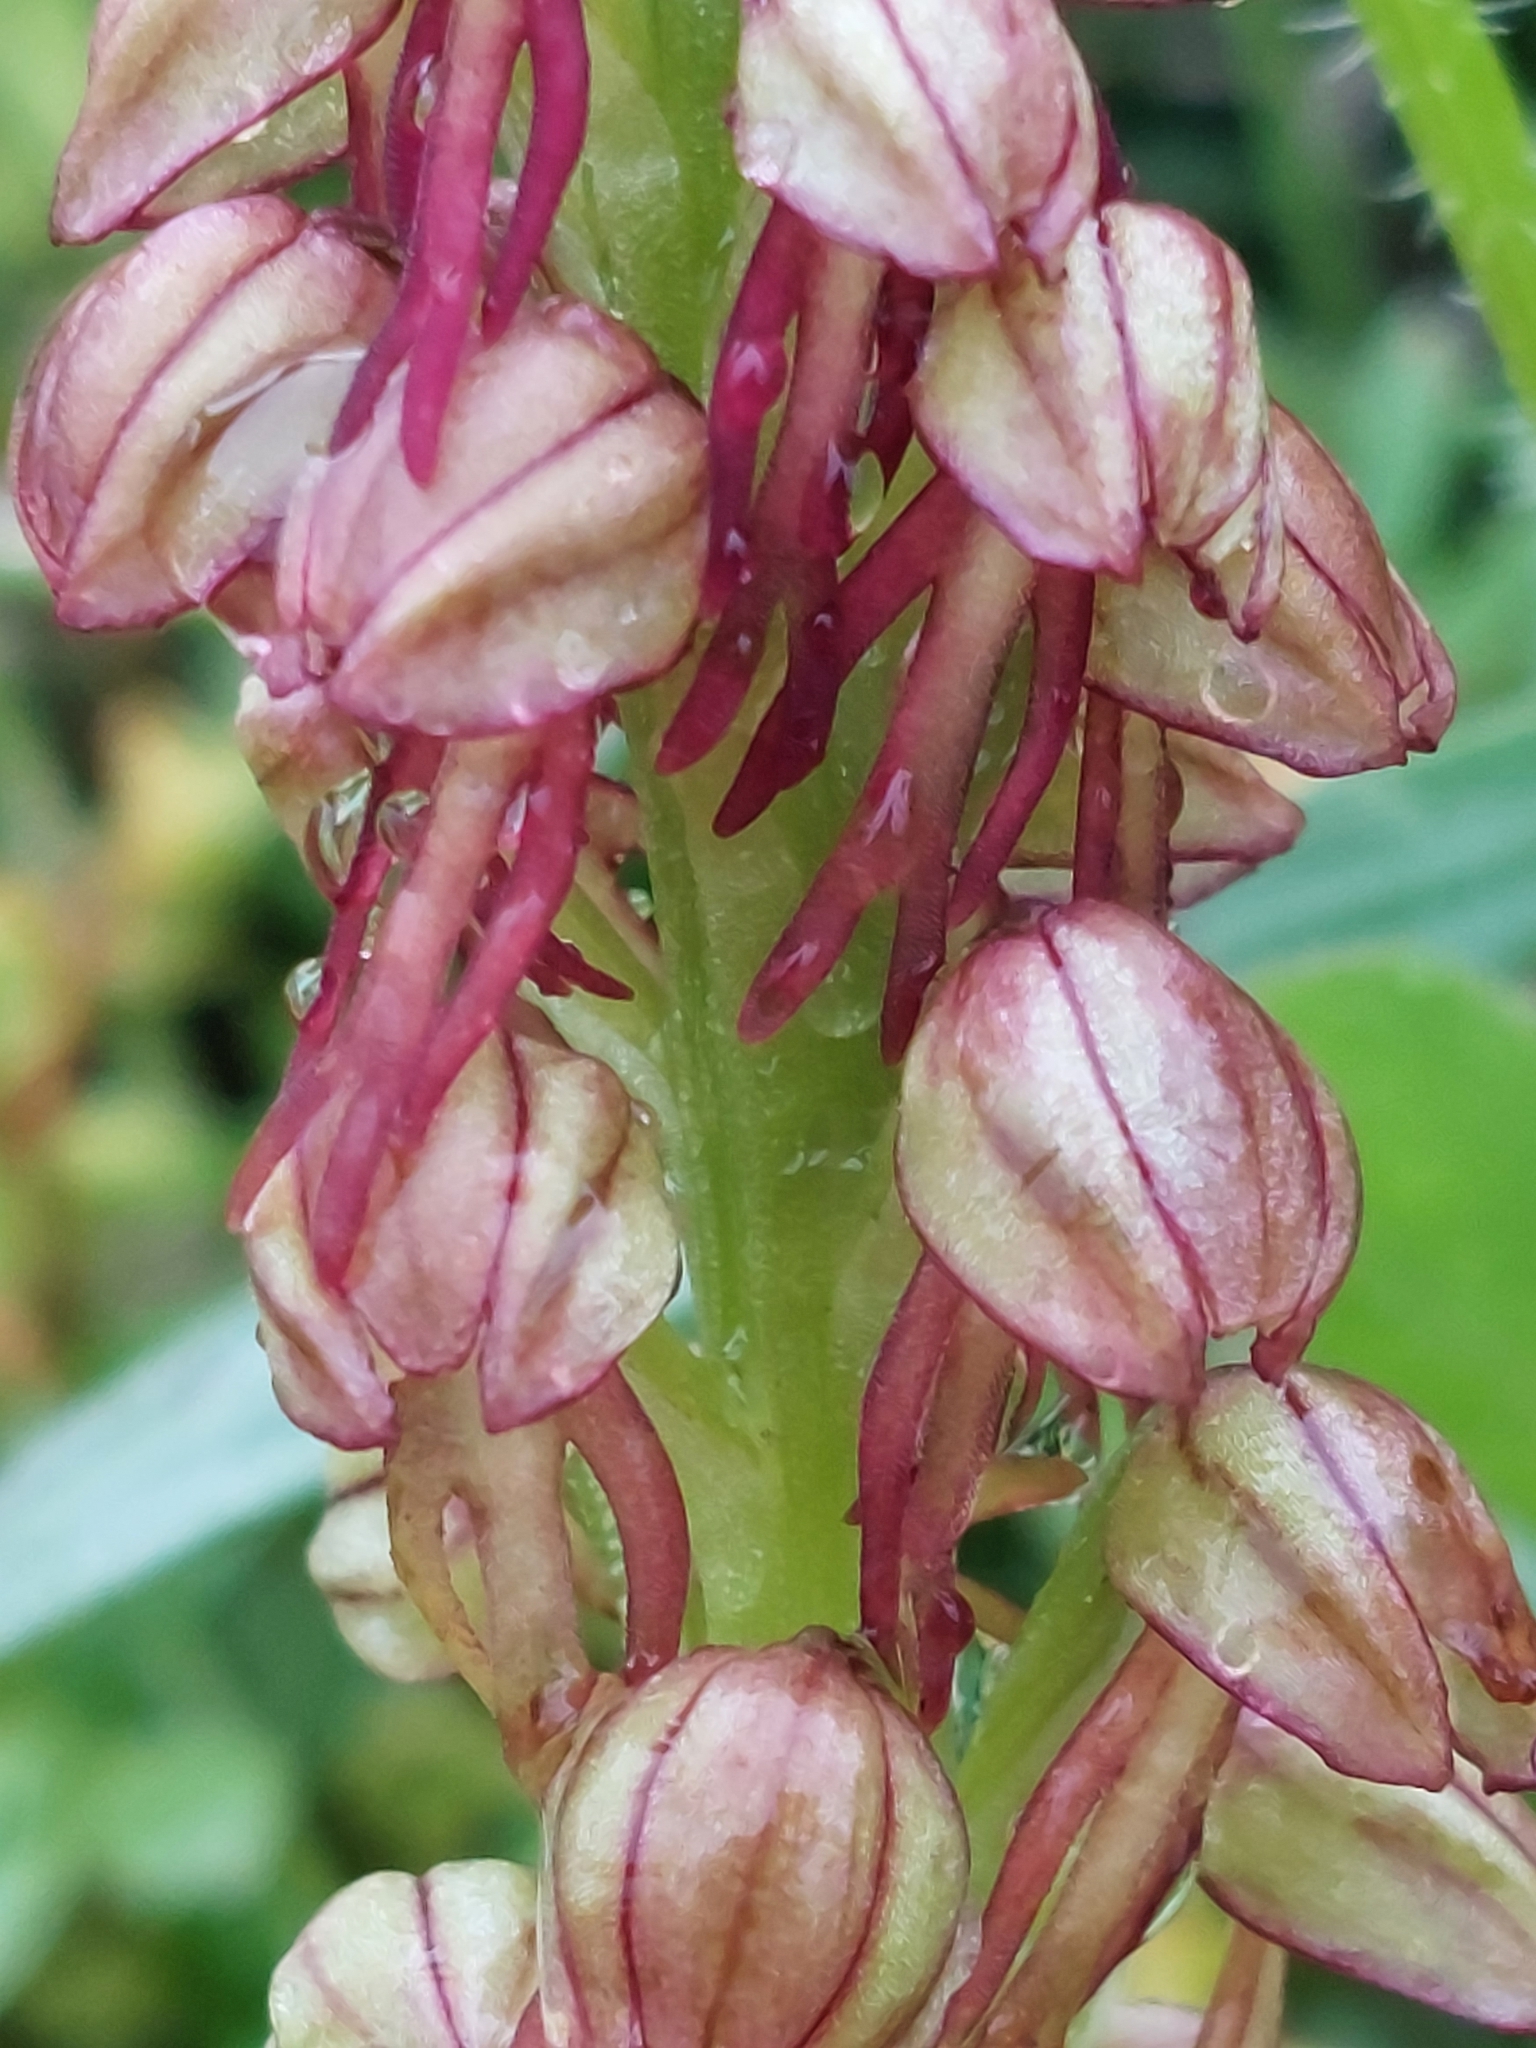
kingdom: Plantae
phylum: Tracheophyta
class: Liliopsida
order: Asparagales
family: Orchidaceae
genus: Orchis
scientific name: Orchis anthropophora
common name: Man orchid
